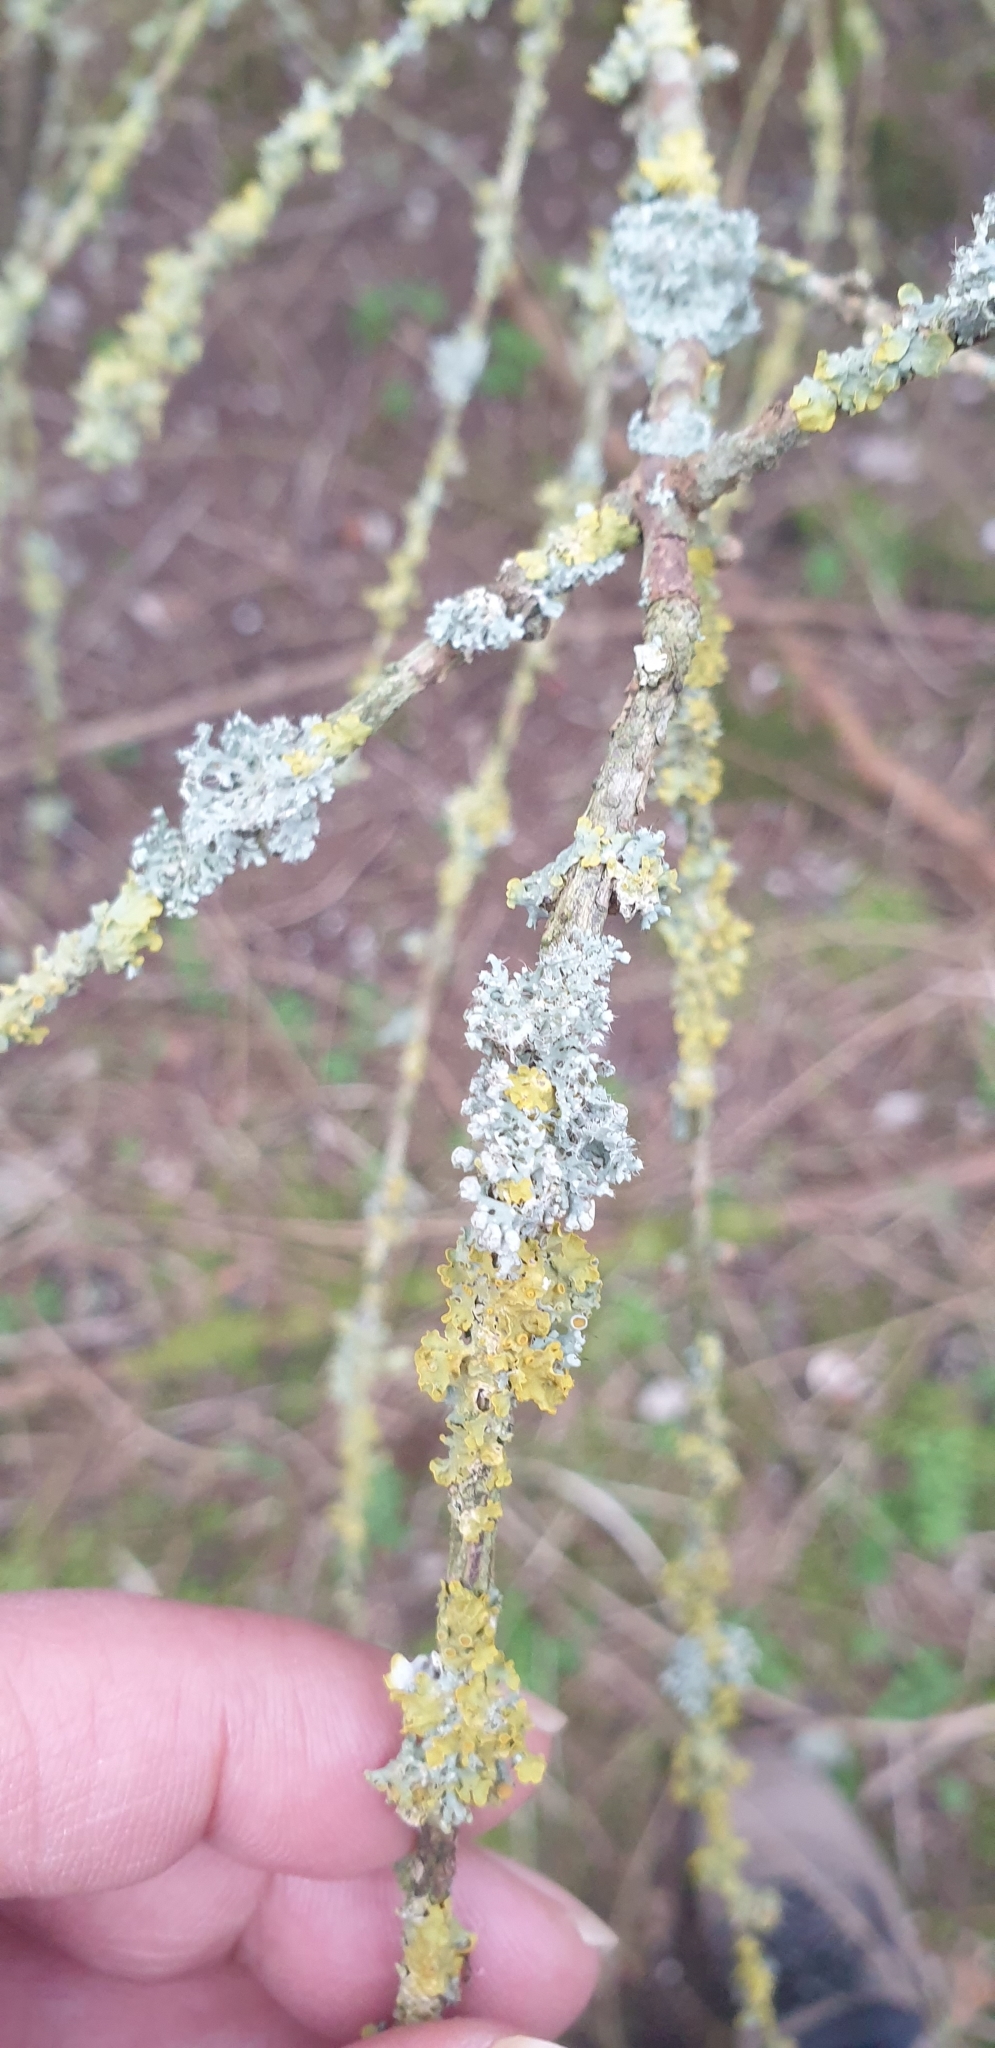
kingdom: Fungi
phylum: Ascomycota
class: Lecanoromycetes
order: Caliciales
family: Physciaceae
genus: Physcia
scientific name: Physcia adscendens
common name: Hooded rosette lichen
